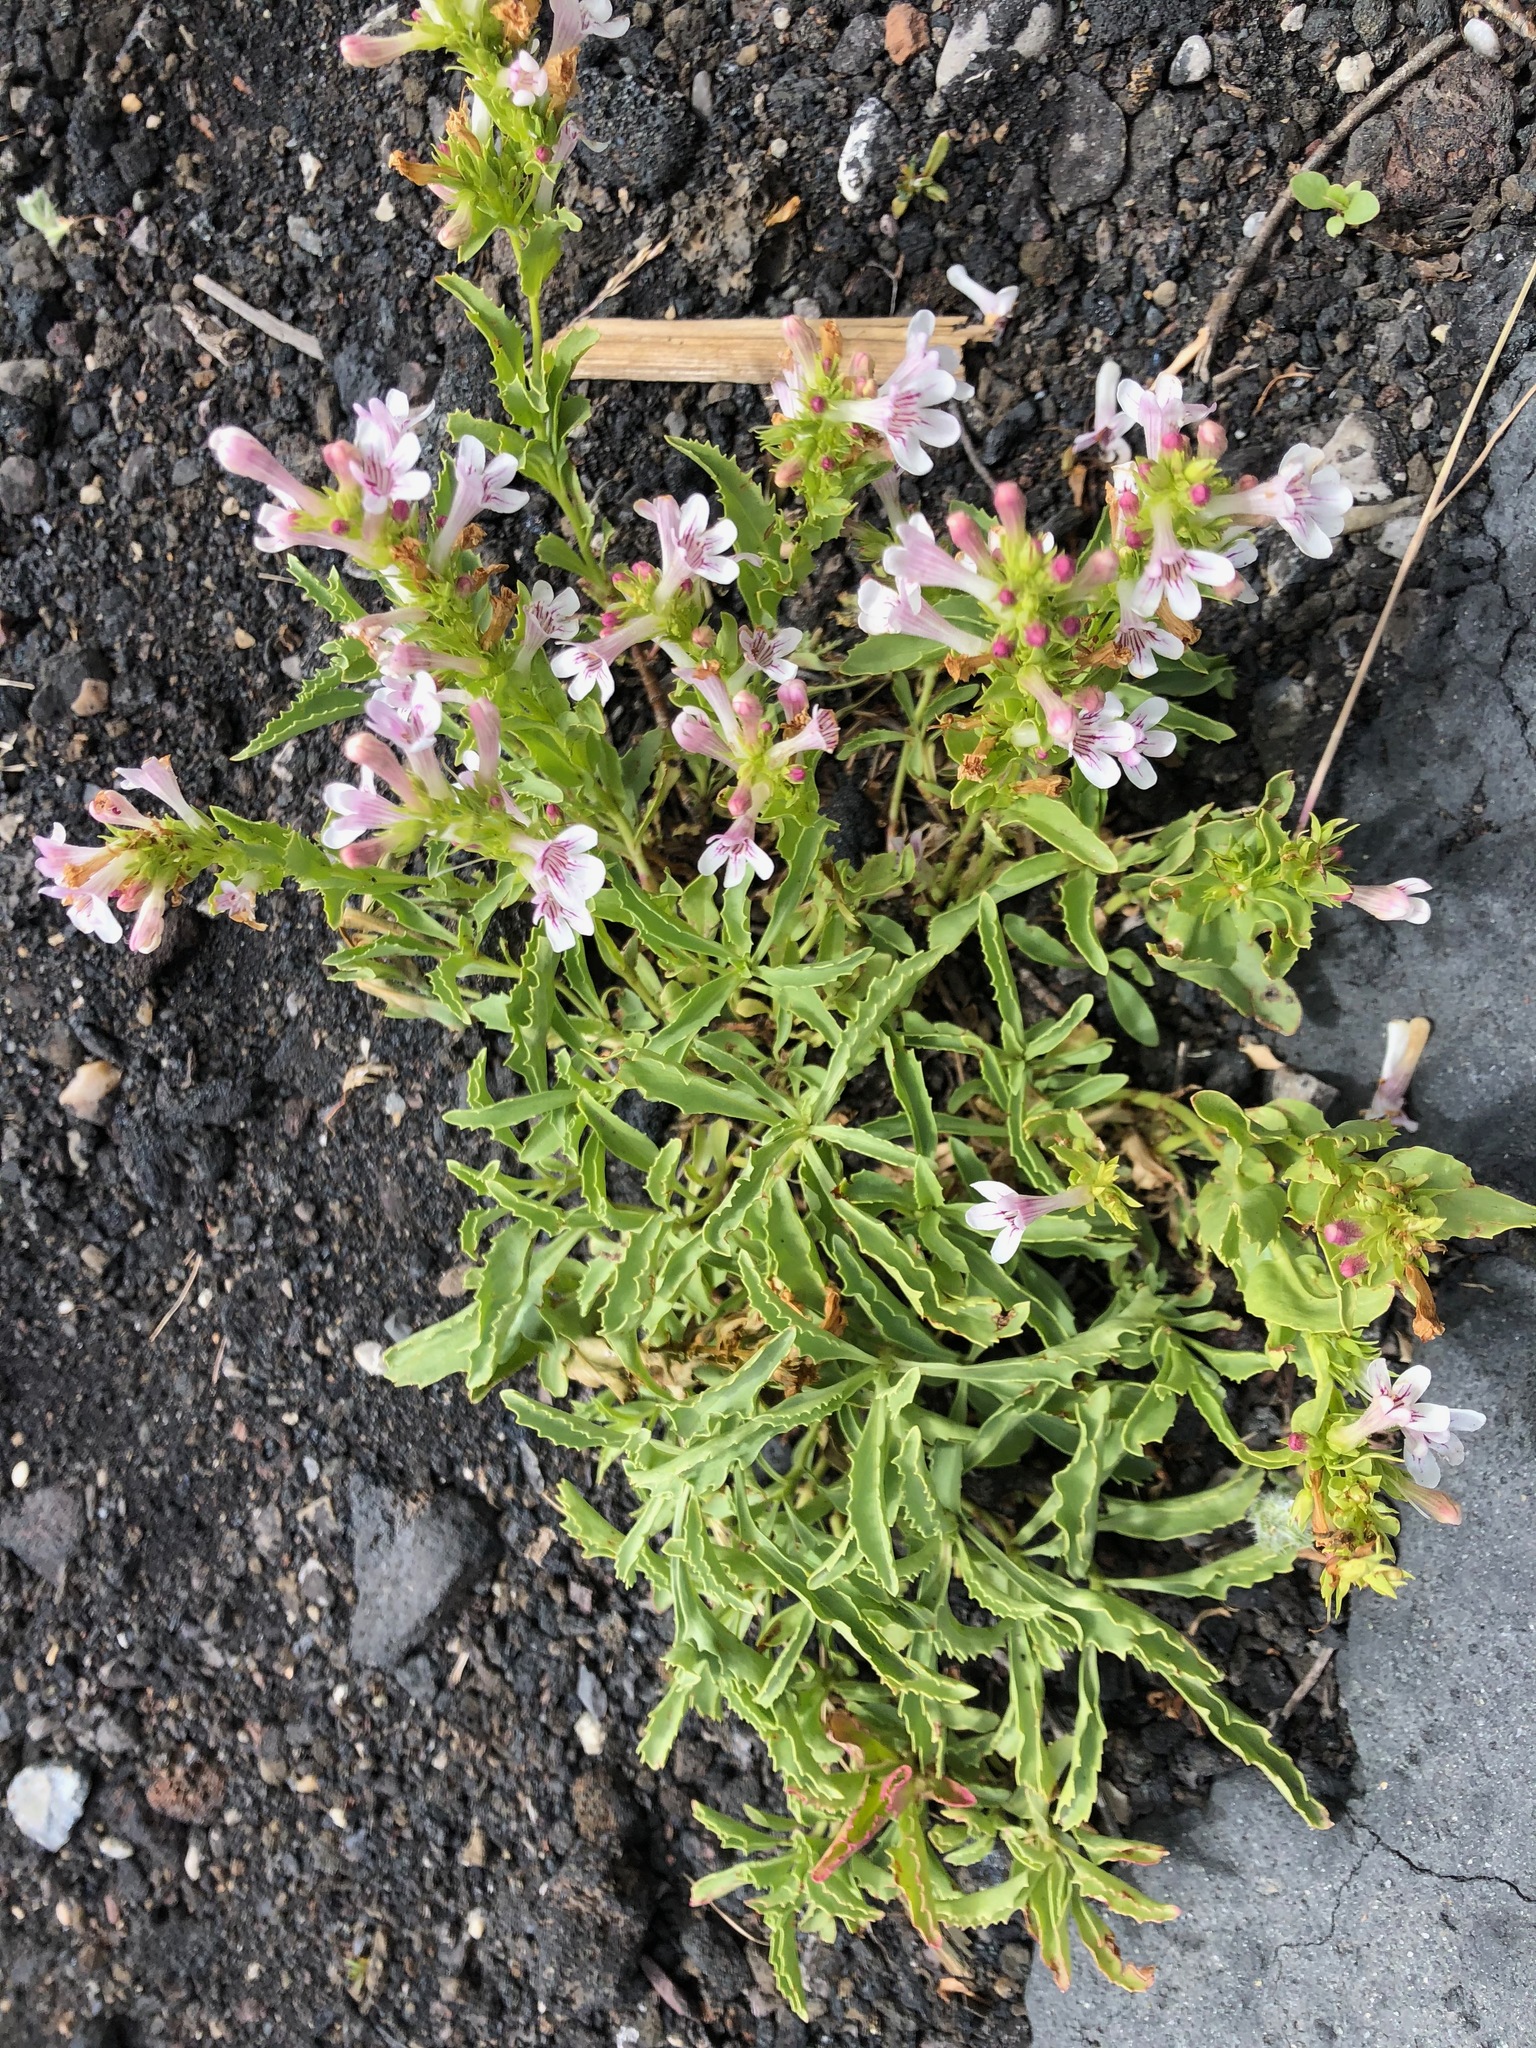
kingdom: Plantae
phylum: Tracheophyta
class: Magnoliopsida
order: Lamiales
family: Plantaginaceae
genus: Penstemon
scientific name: Penstemon deustus
